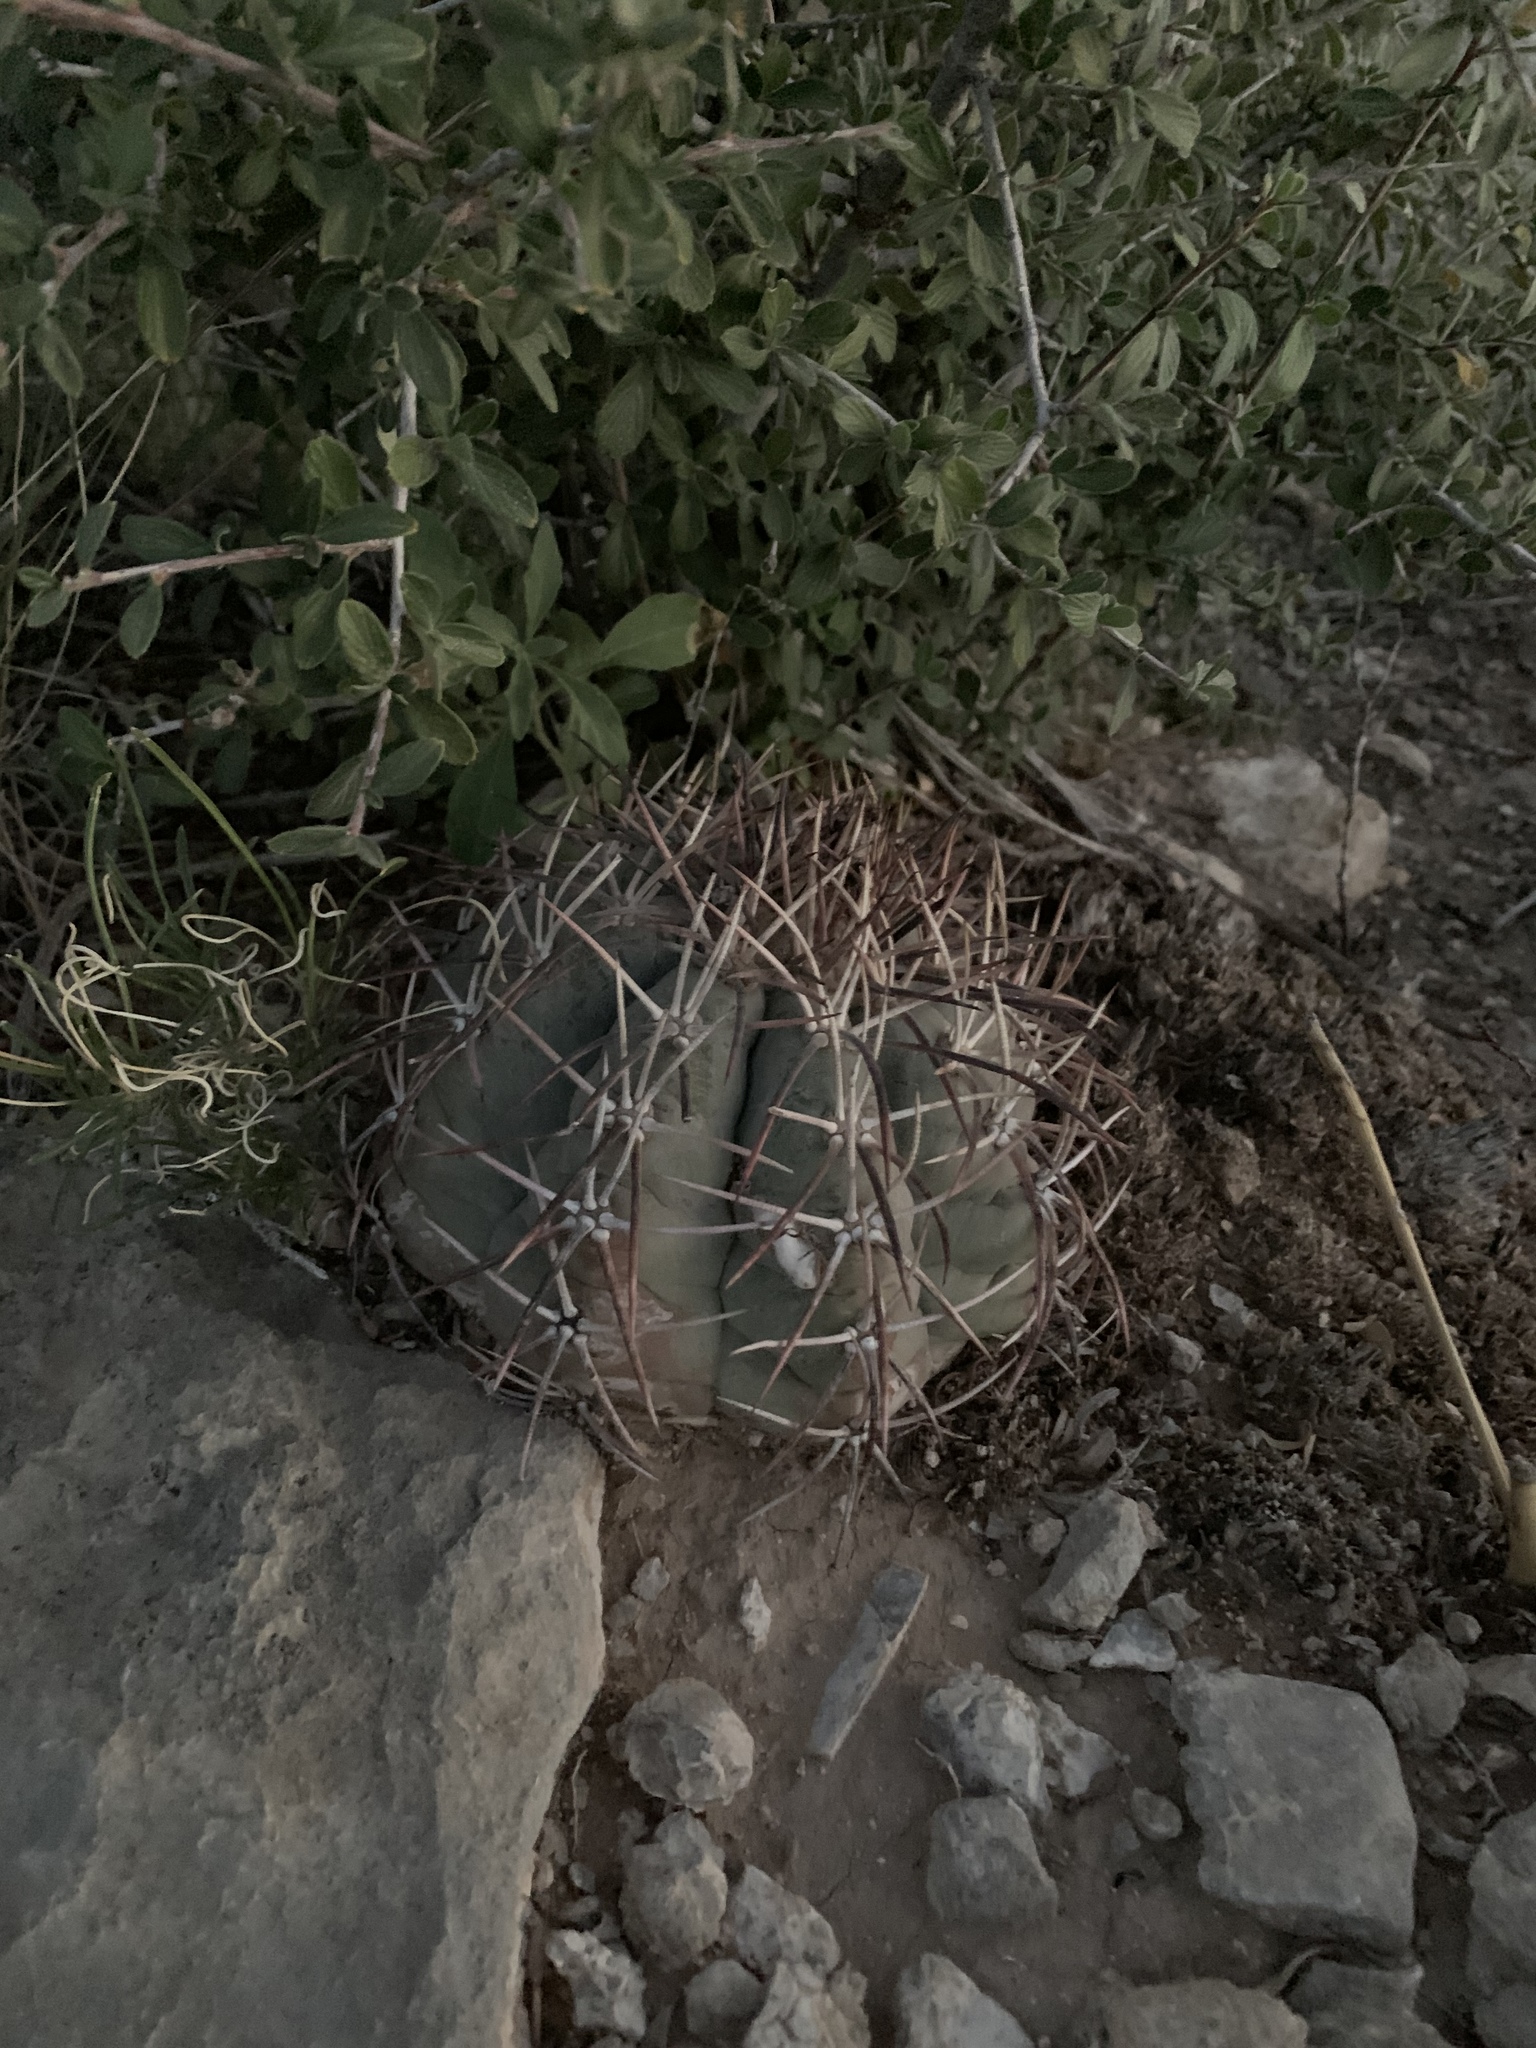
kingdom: Plantae
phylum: Tracheophyta
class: Magnoliopsida
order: Caryophyllales
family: Cactaceae
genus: Echinocactus
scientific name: Echinocactus horizonthalonius
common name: Devilshead
